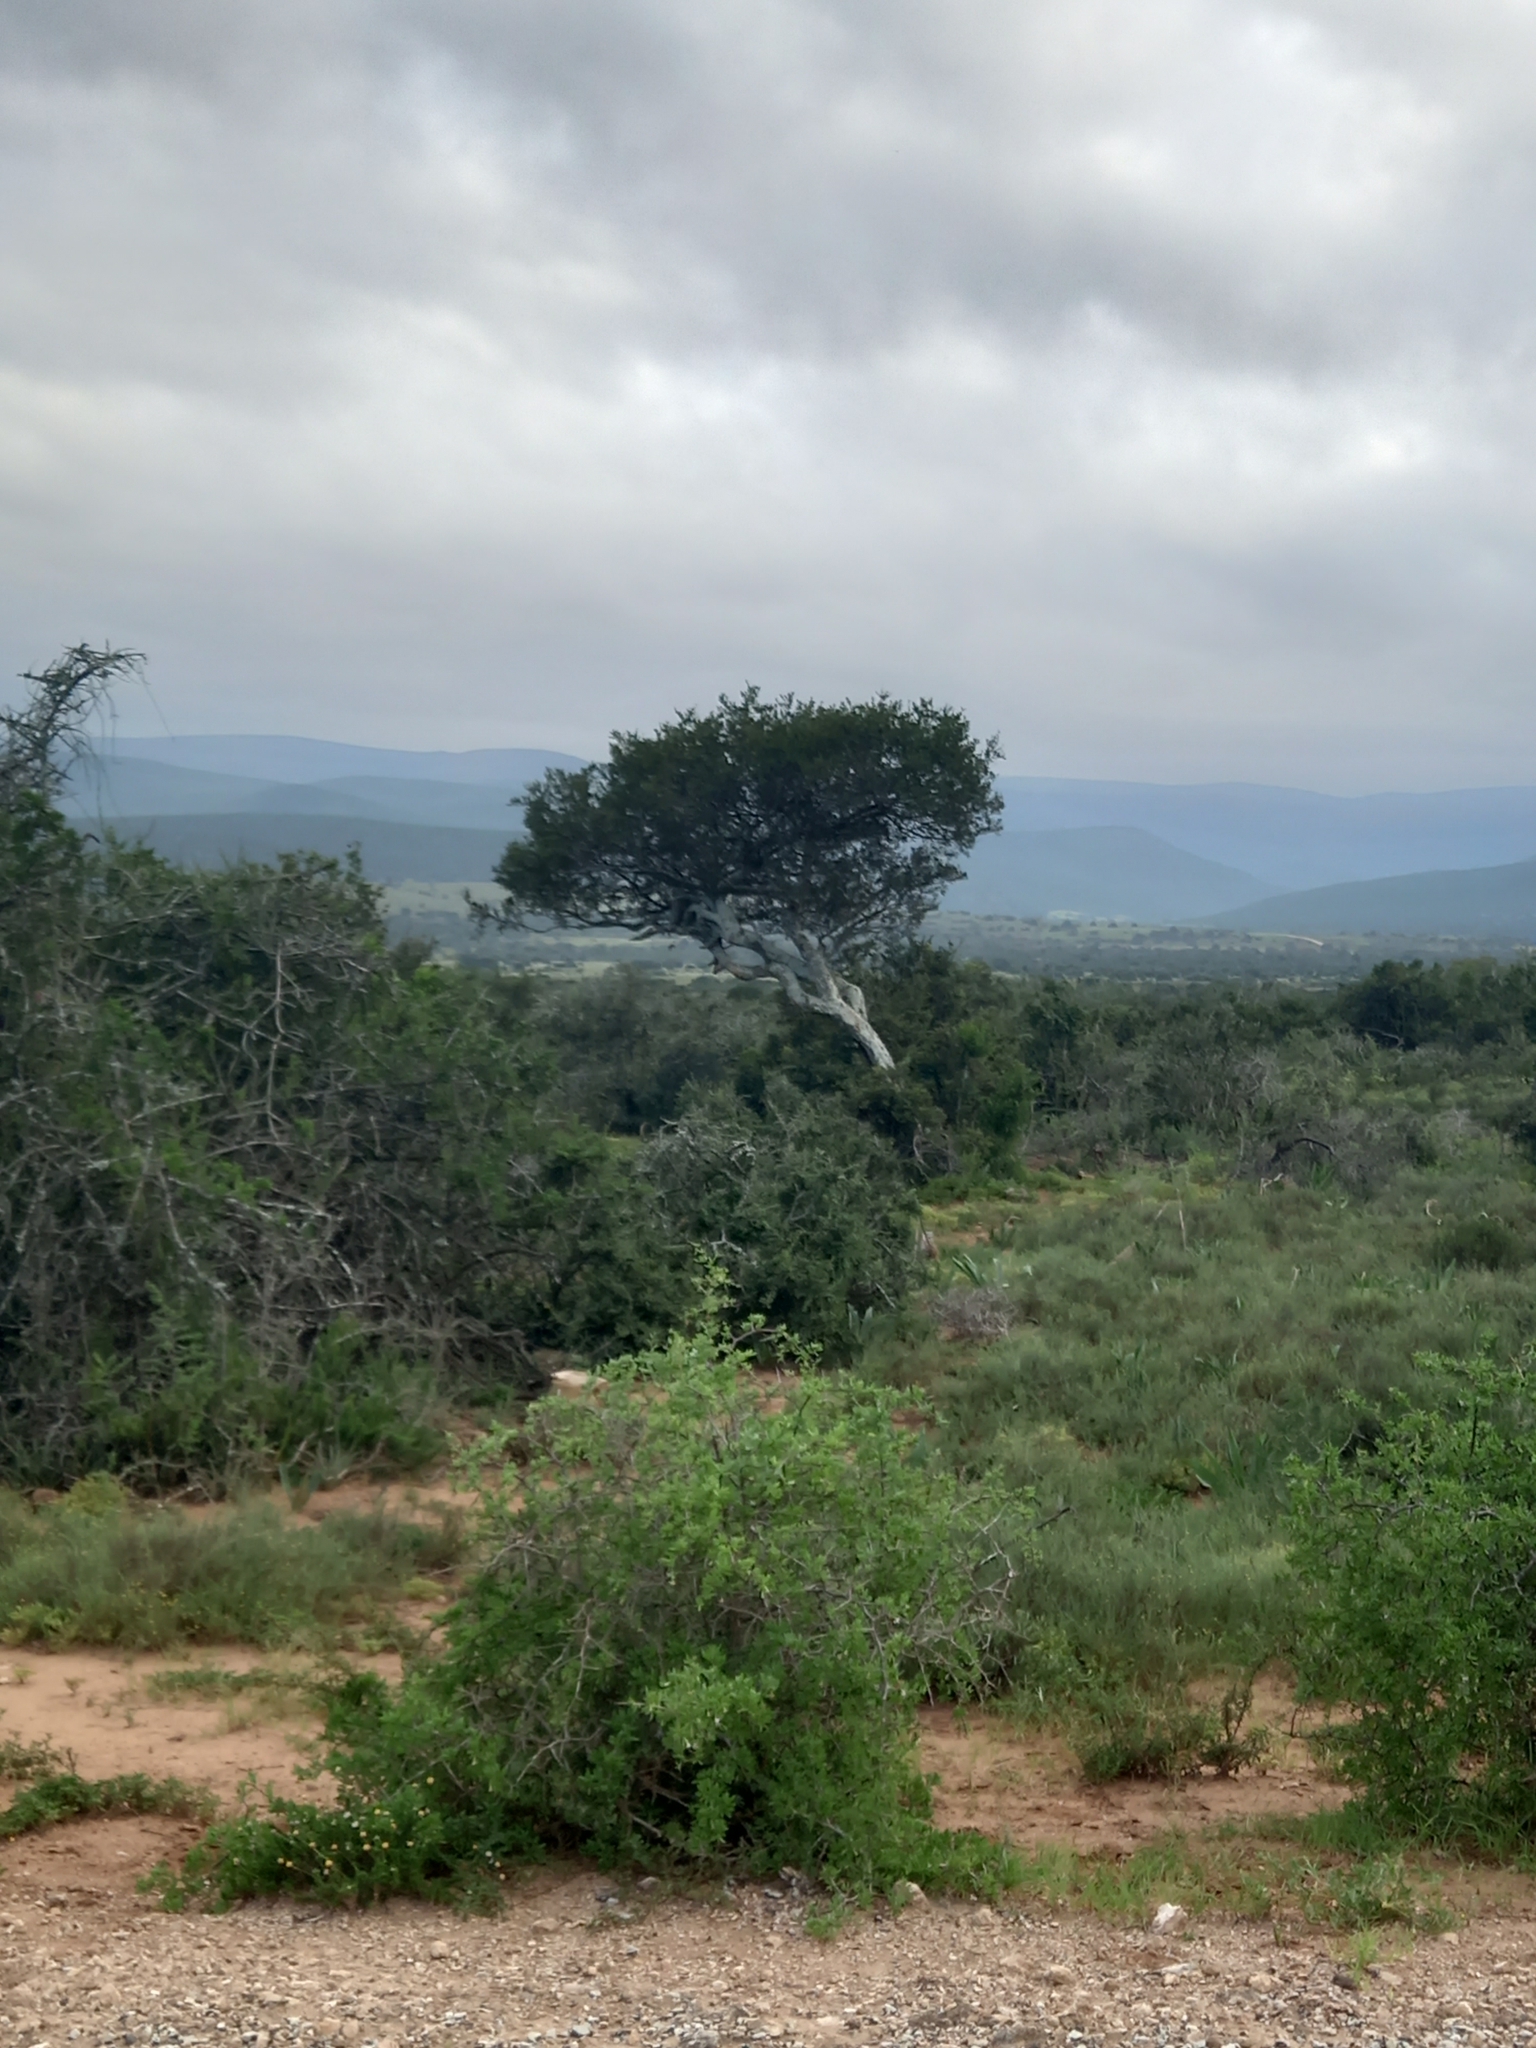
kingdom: Plantae
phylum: Tracheophyta
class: Magnoliopsida
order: Brassicales
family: Capparaceae
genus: Boscia
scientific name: Boscia oleoides
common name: Karoo shepherd tree
